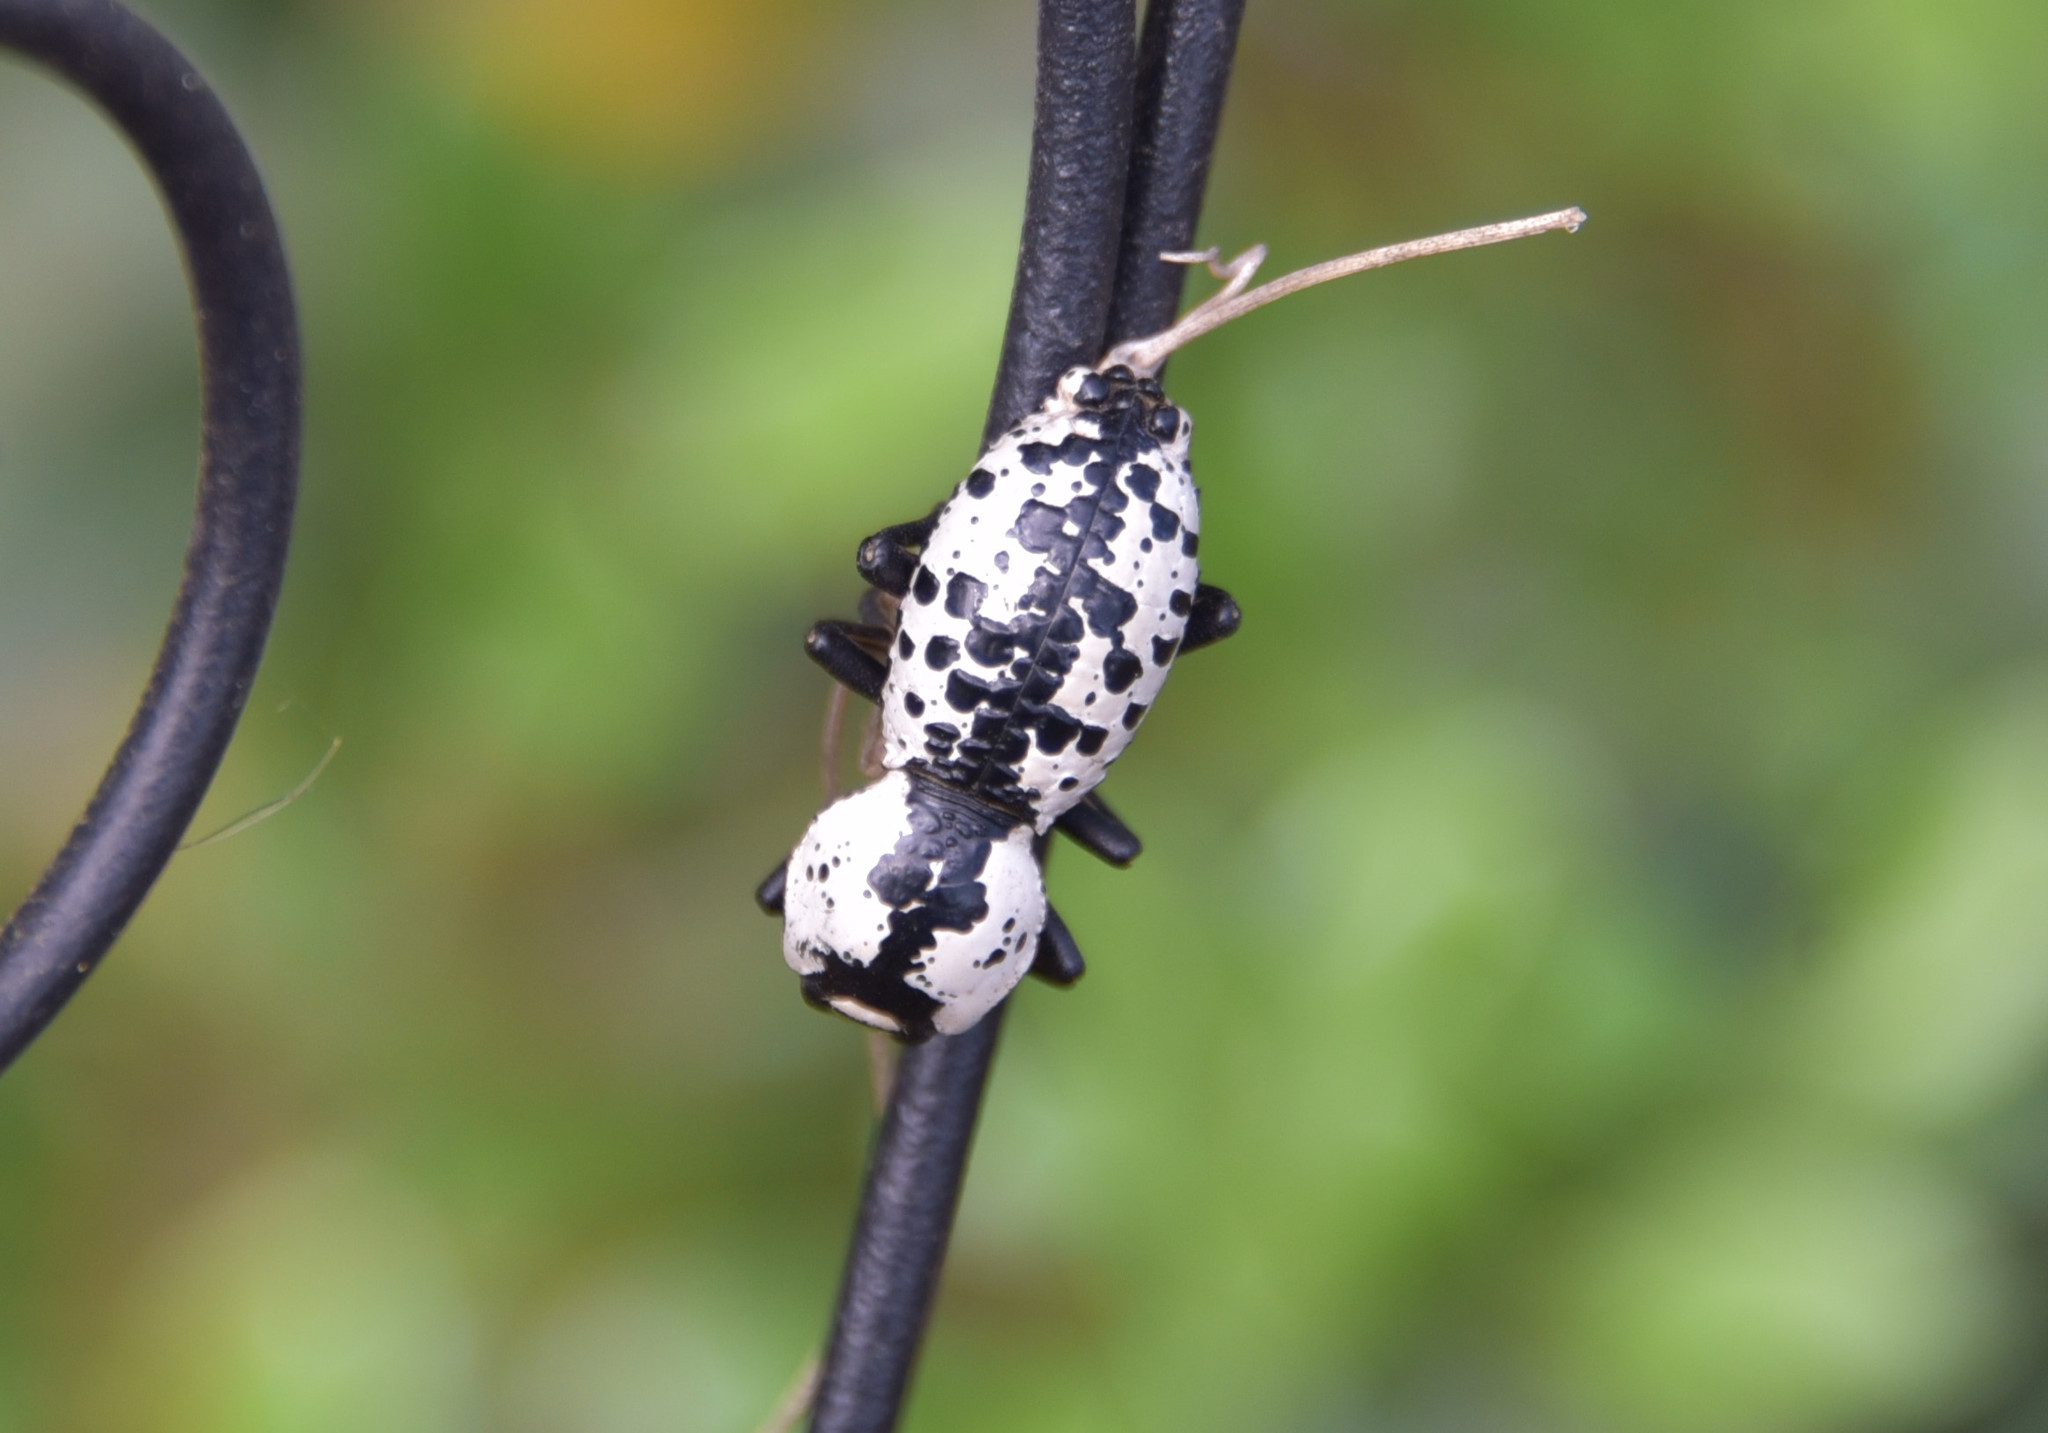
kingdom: Animalia
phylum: Arthropoda
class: Insecta
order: Coleoptera
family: Zopheridae
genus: Zopherus
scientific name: Zopherus nodulosus
